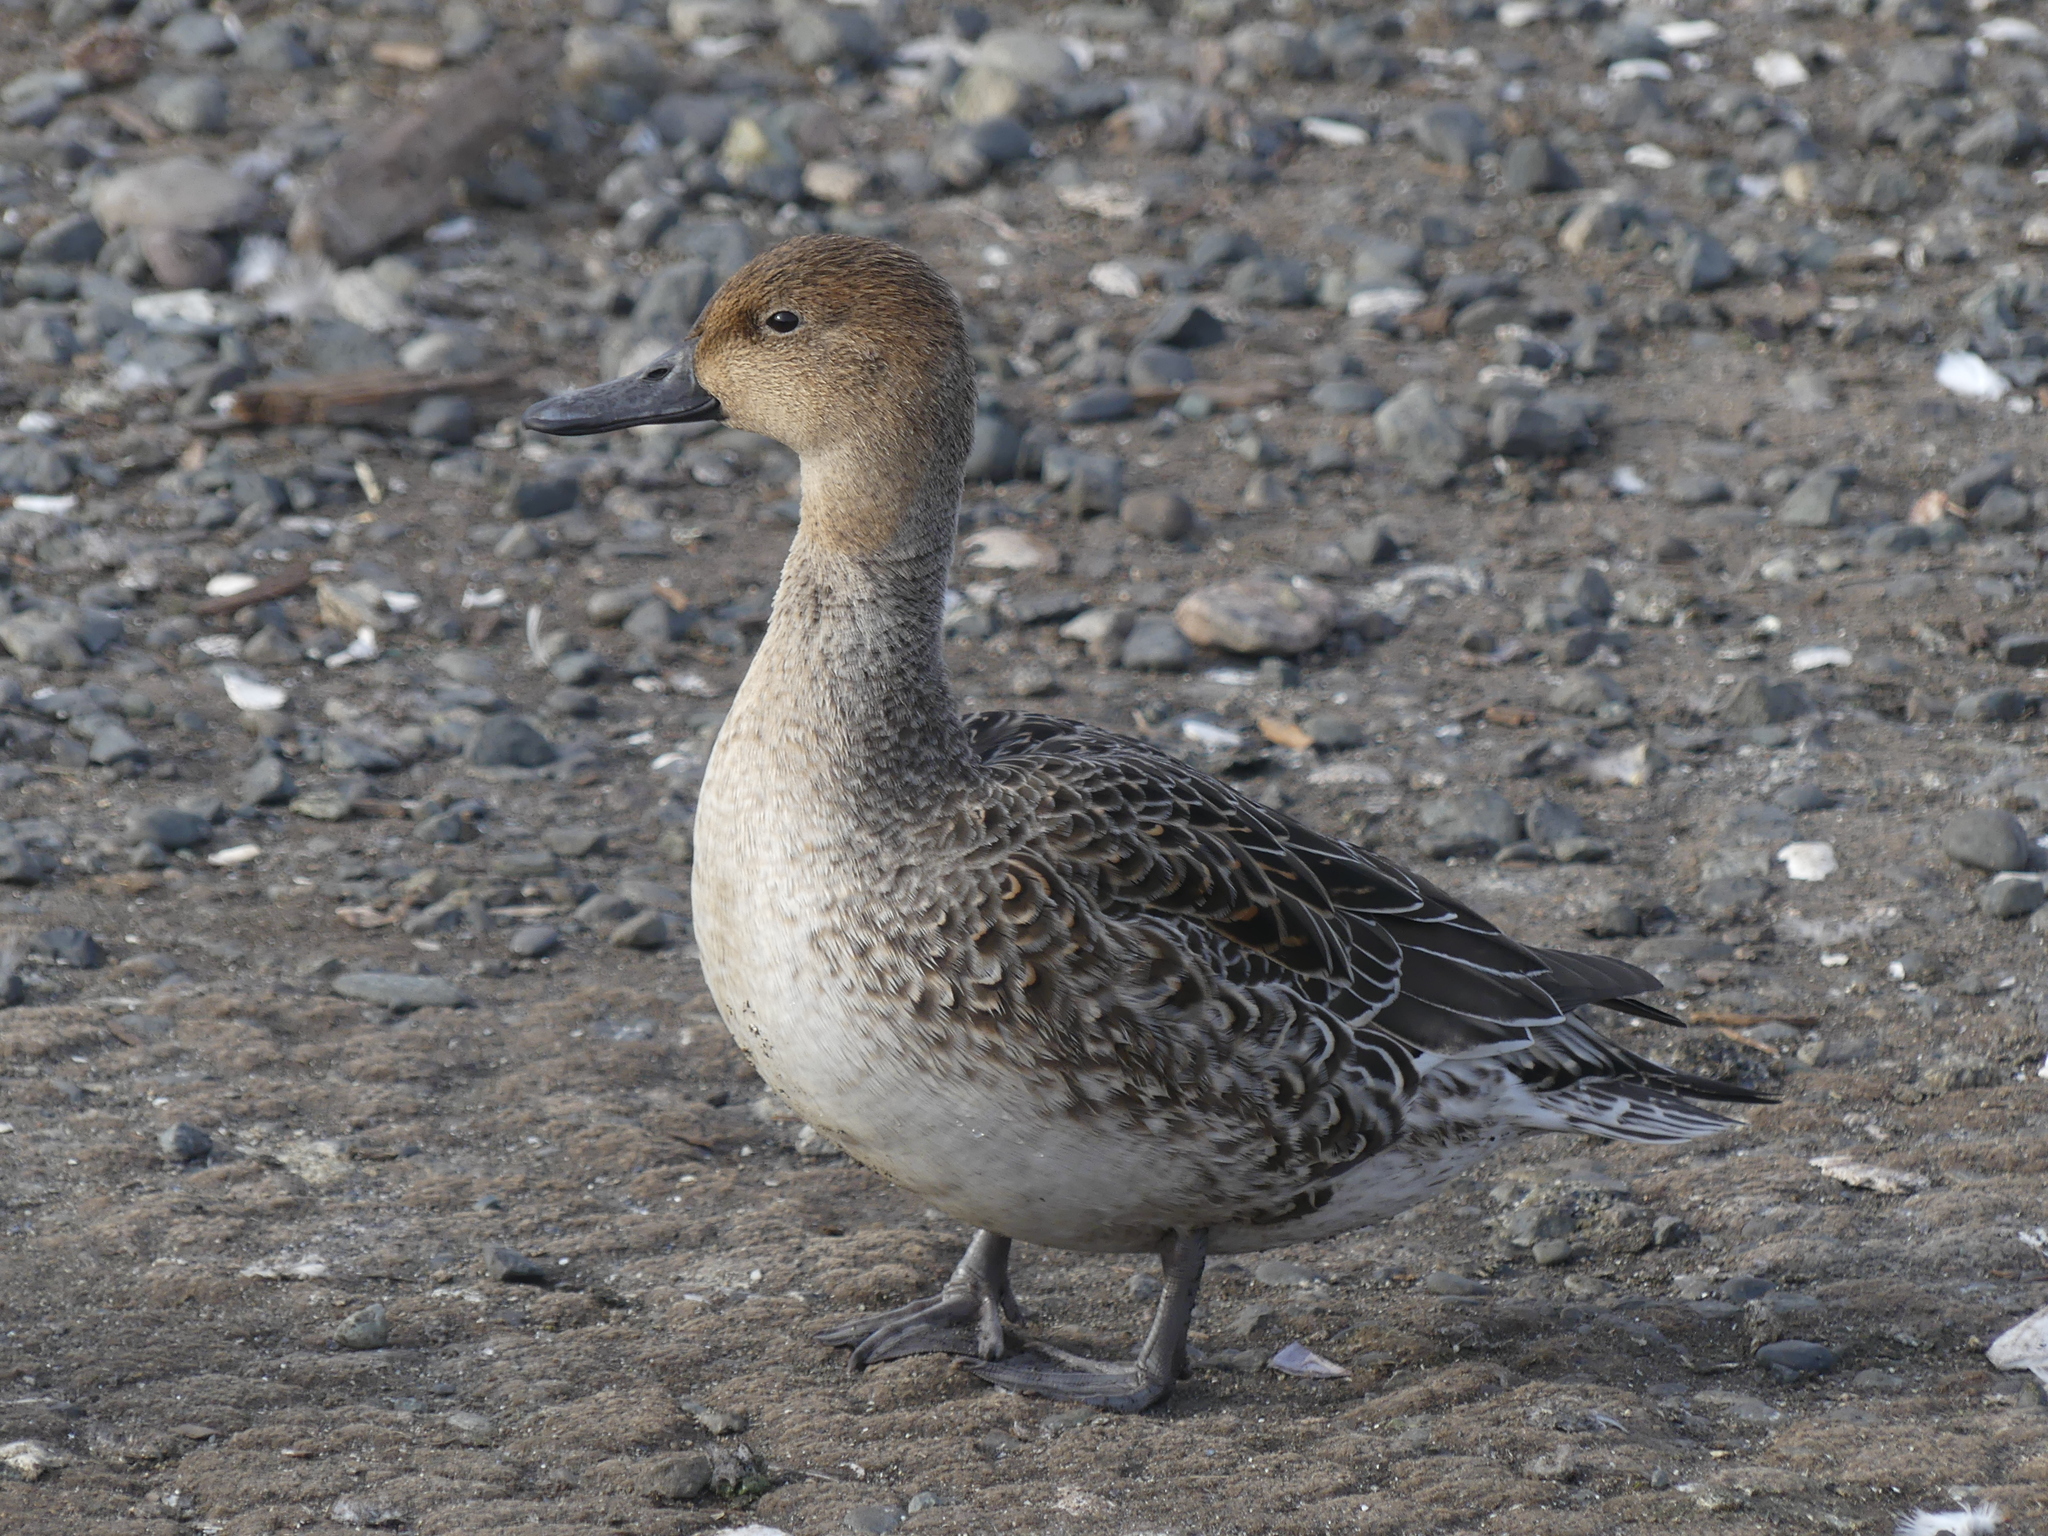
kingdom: Animalia
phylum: Chordata
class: Aves
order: Anseriformes
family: Anatidae
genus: Anas
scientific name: Anas acuta
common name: Northern pintail
